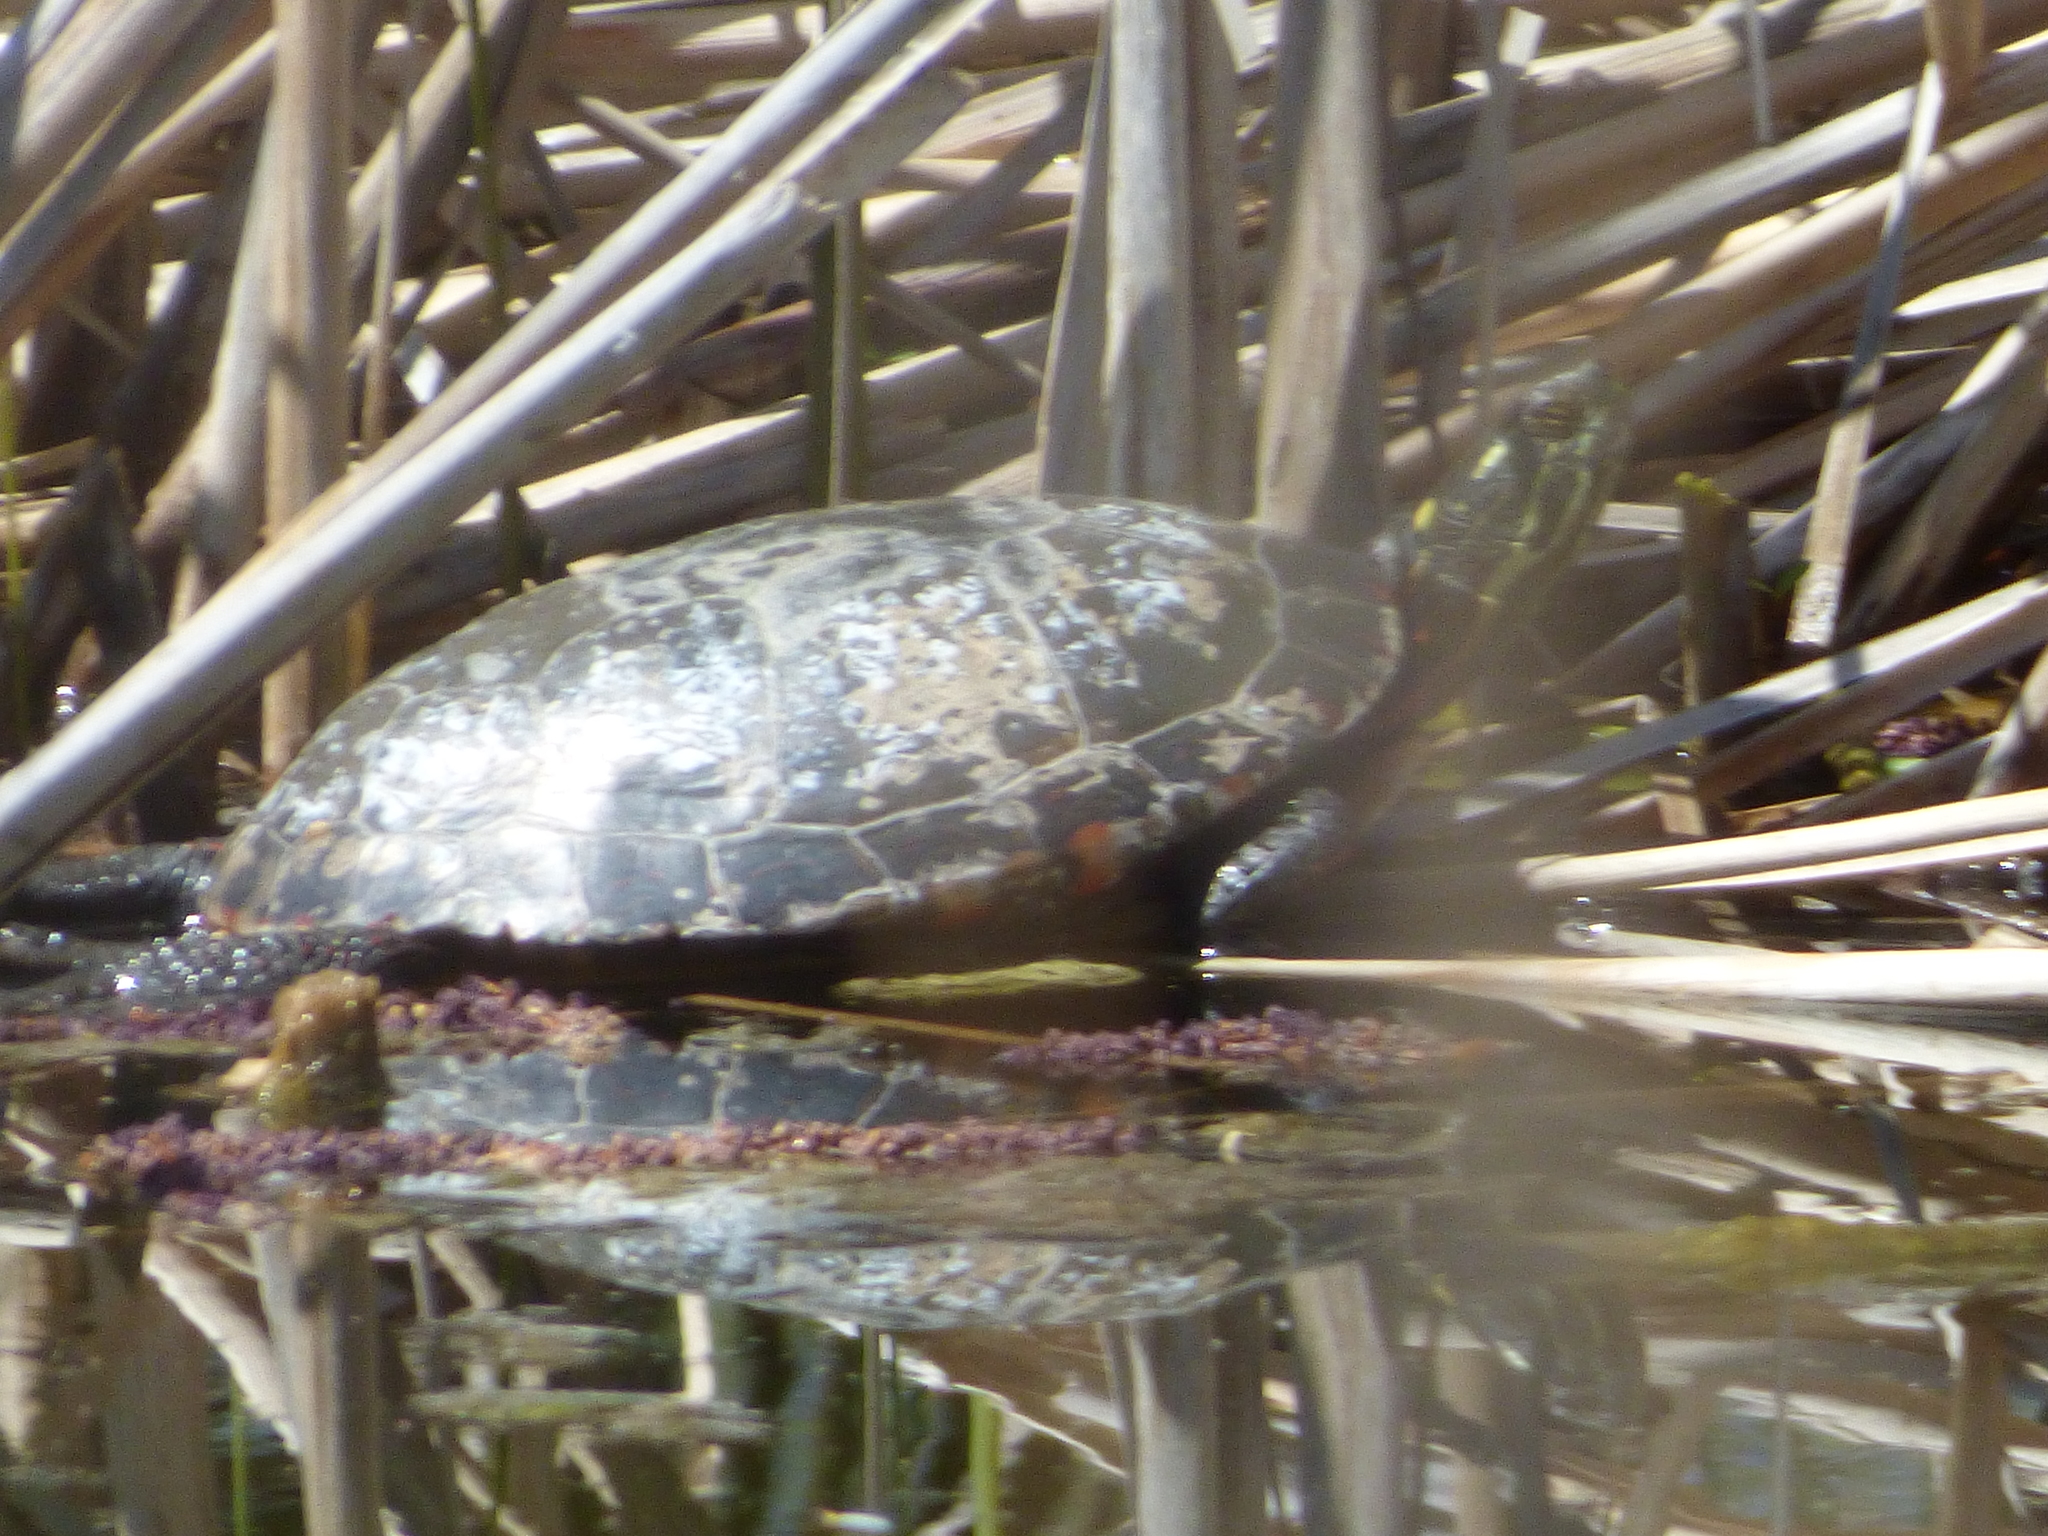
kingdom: Animalia
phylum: Chordata
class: Testudines
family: Emydidae
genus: Chrysemys
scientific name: Chrysemys picta
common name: Painted turtle
